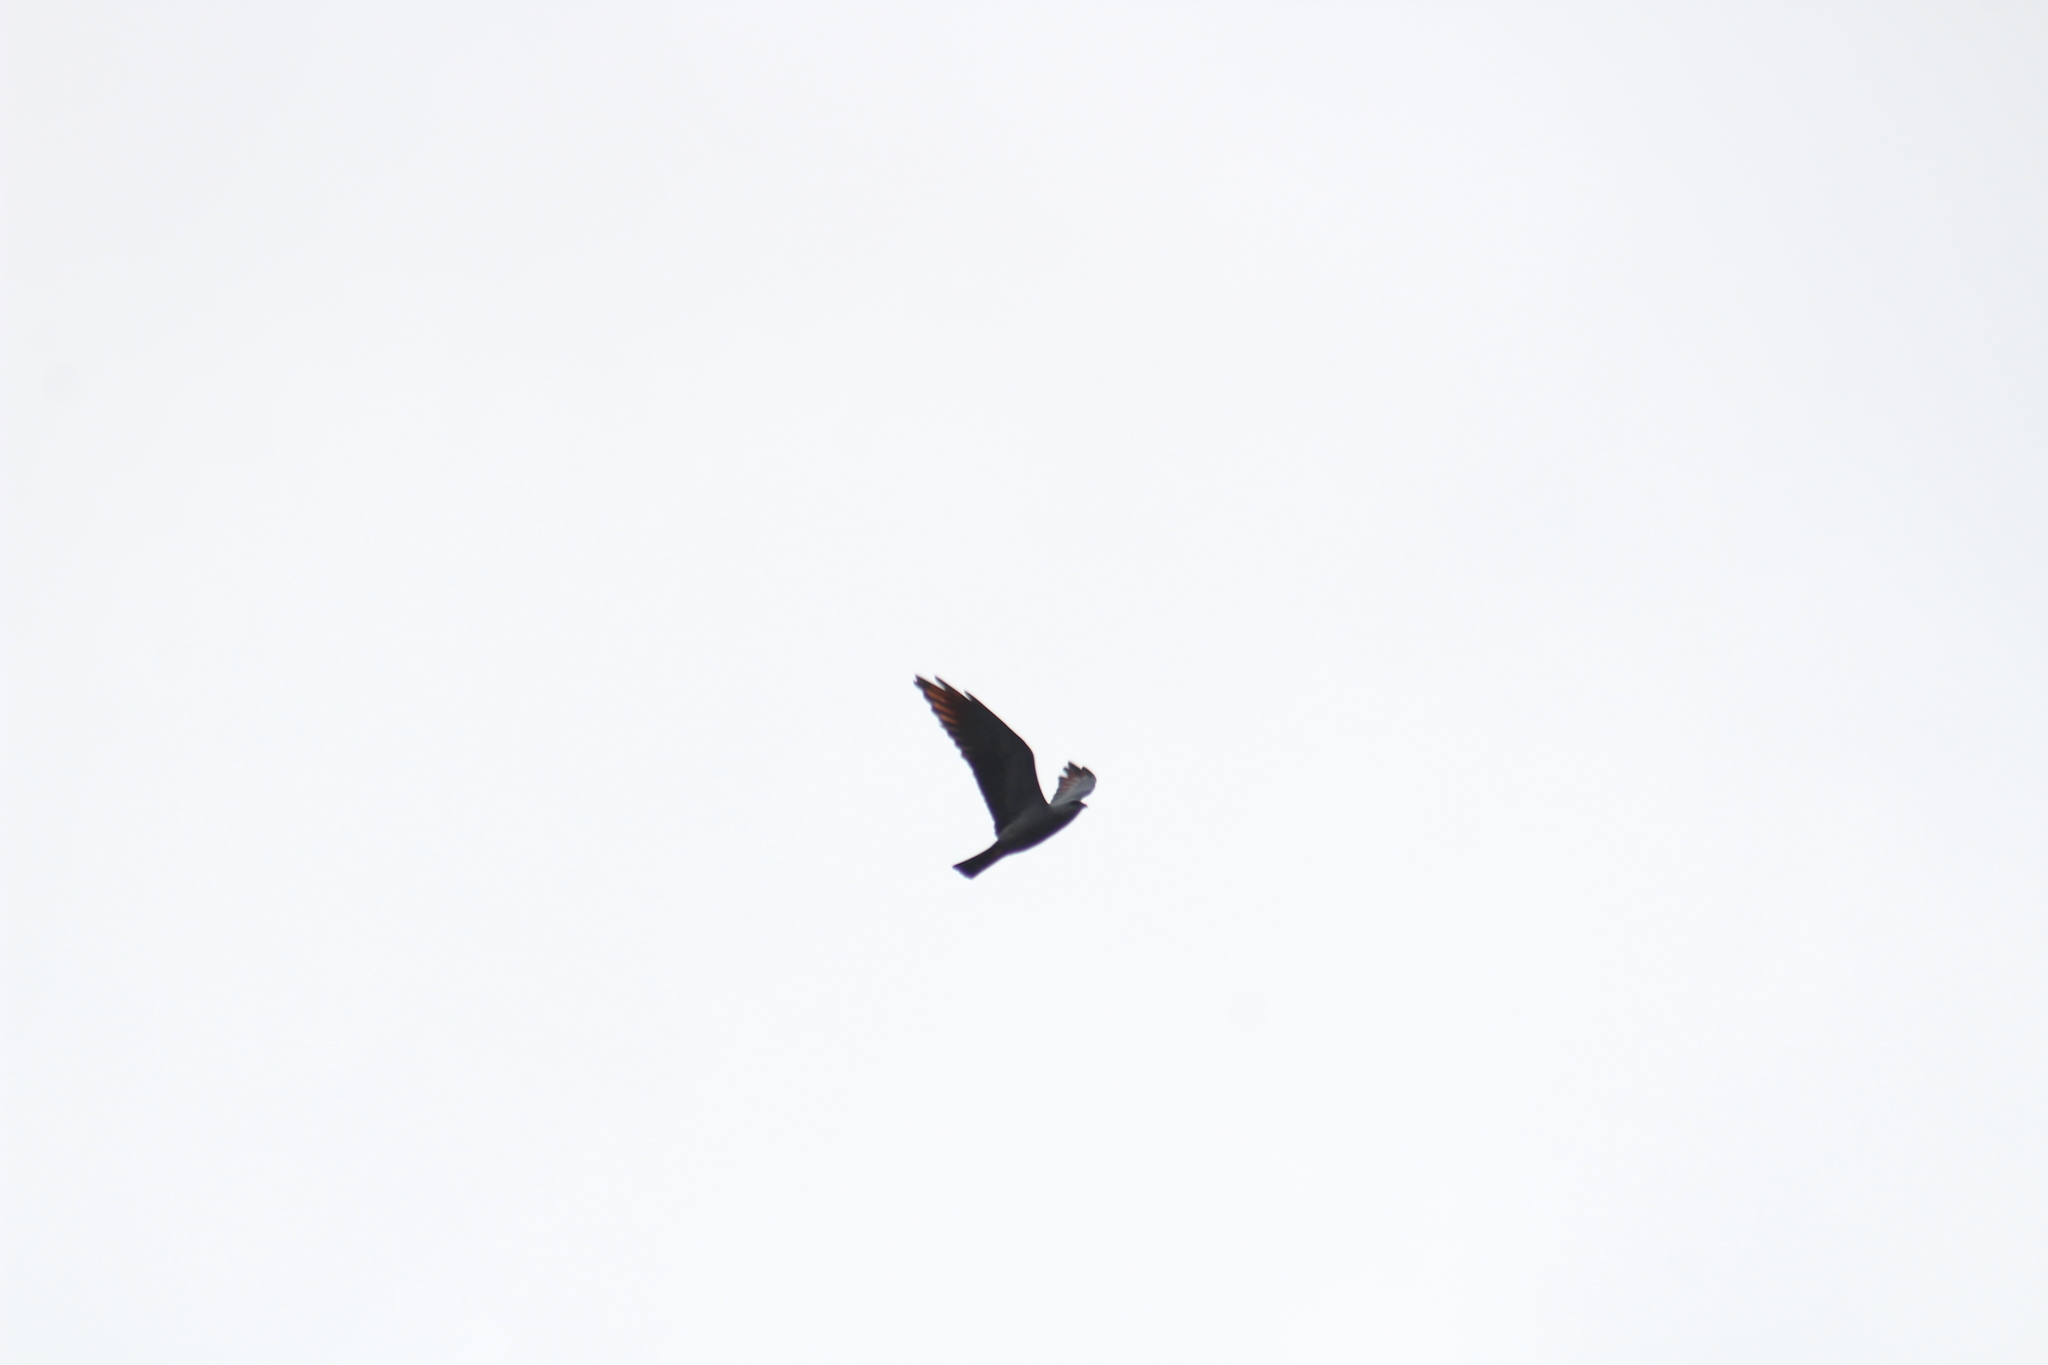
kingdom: Animalia
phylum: Chordata
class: Aves
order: Accipitriformes
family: Accipitridae
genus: Ictinia
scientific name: Ictinia plumbea
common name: Plumbeous kite
